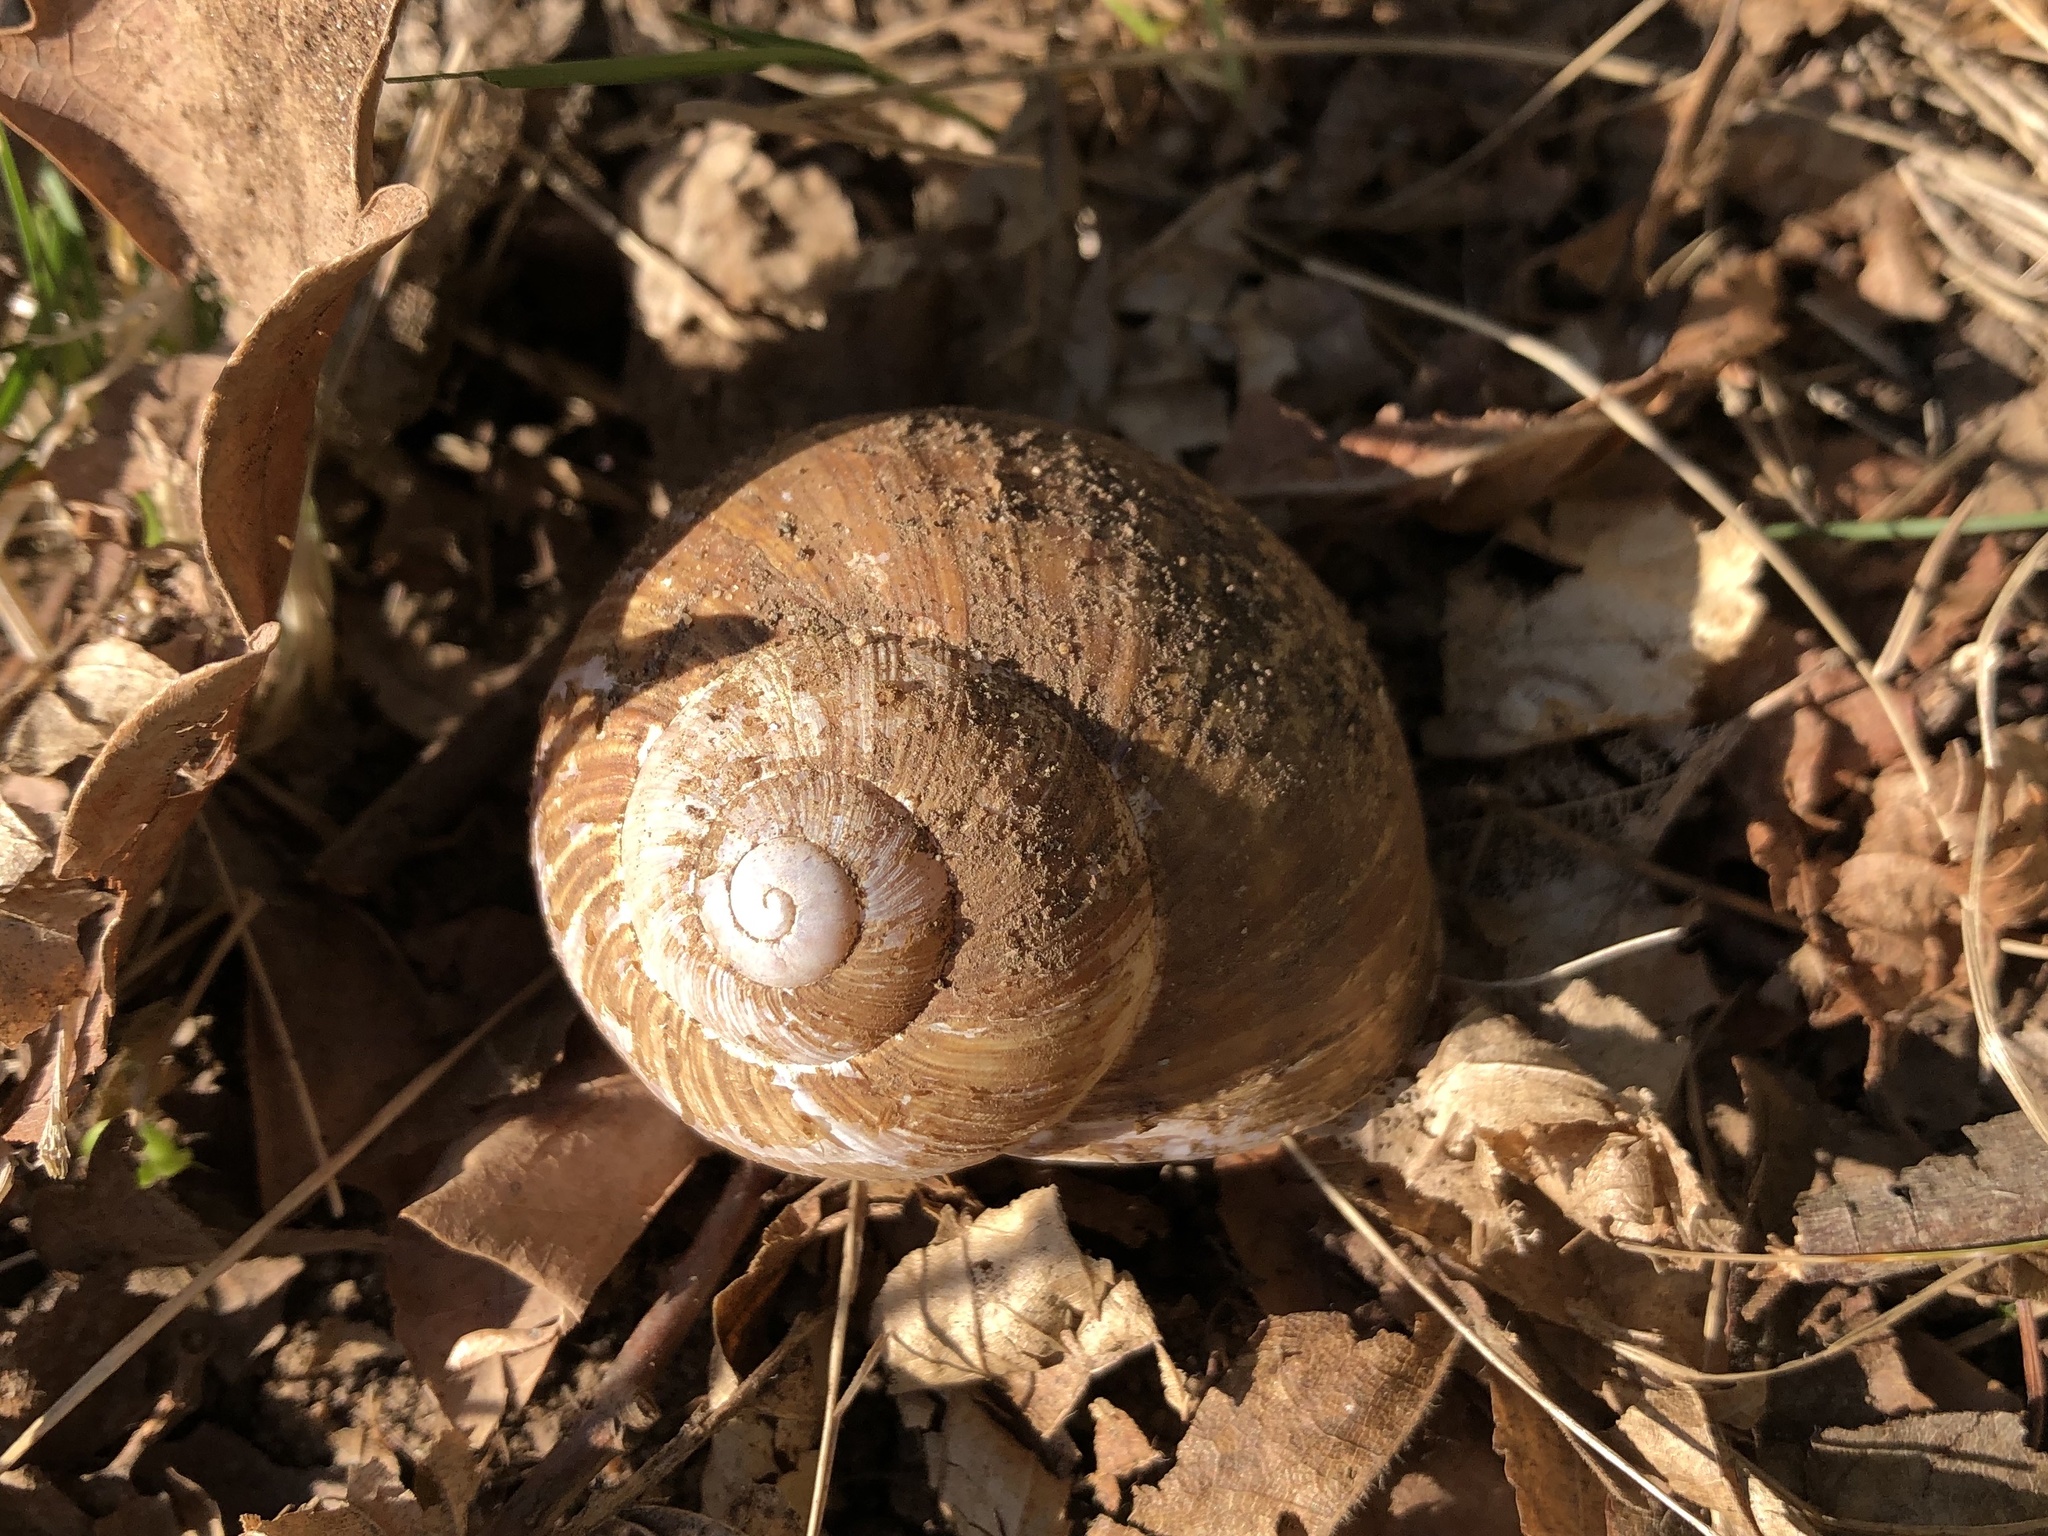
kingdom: Animalia
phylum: Mollusca
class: Gastropoda
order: Stylommatophora
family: Helicidae
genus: Helix
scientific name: Helix pomatia
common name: Roman snail
